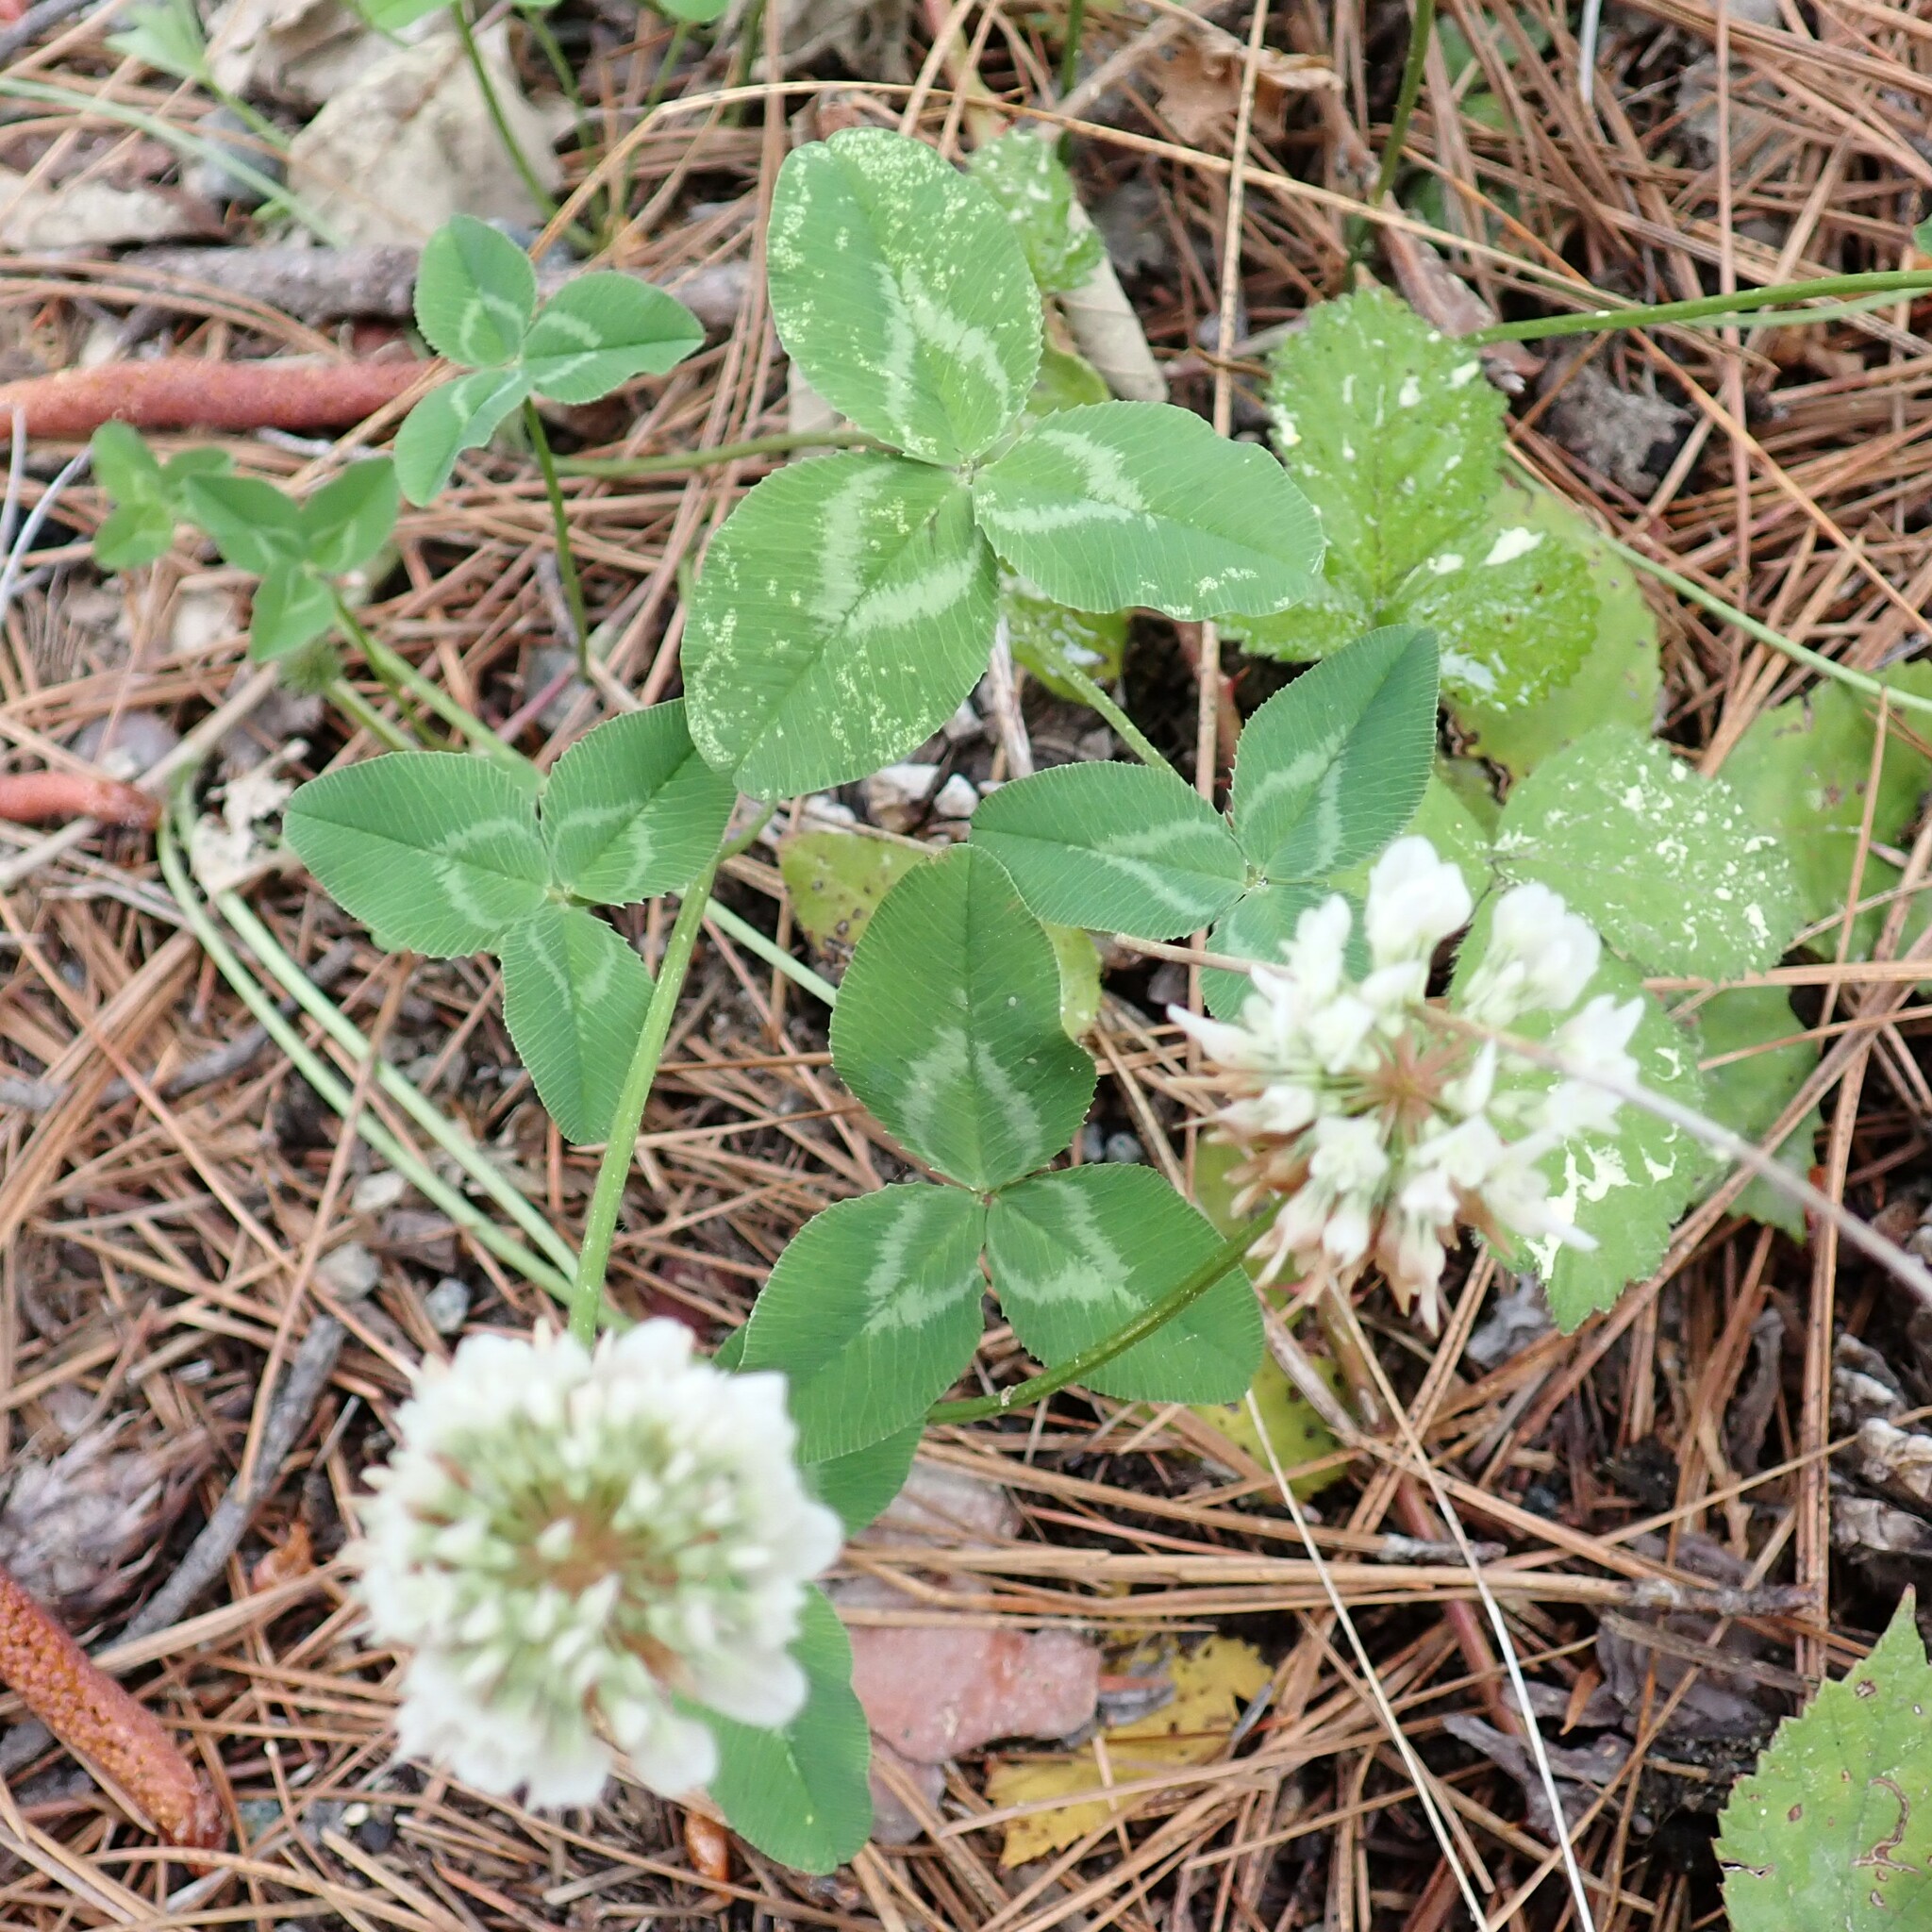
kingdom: Plantae
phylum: Tracheophyta
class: Magnoliopsida
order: Fabales
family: Fabaceae
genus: Trifolium
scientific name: Trifolium repens
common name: White clover
